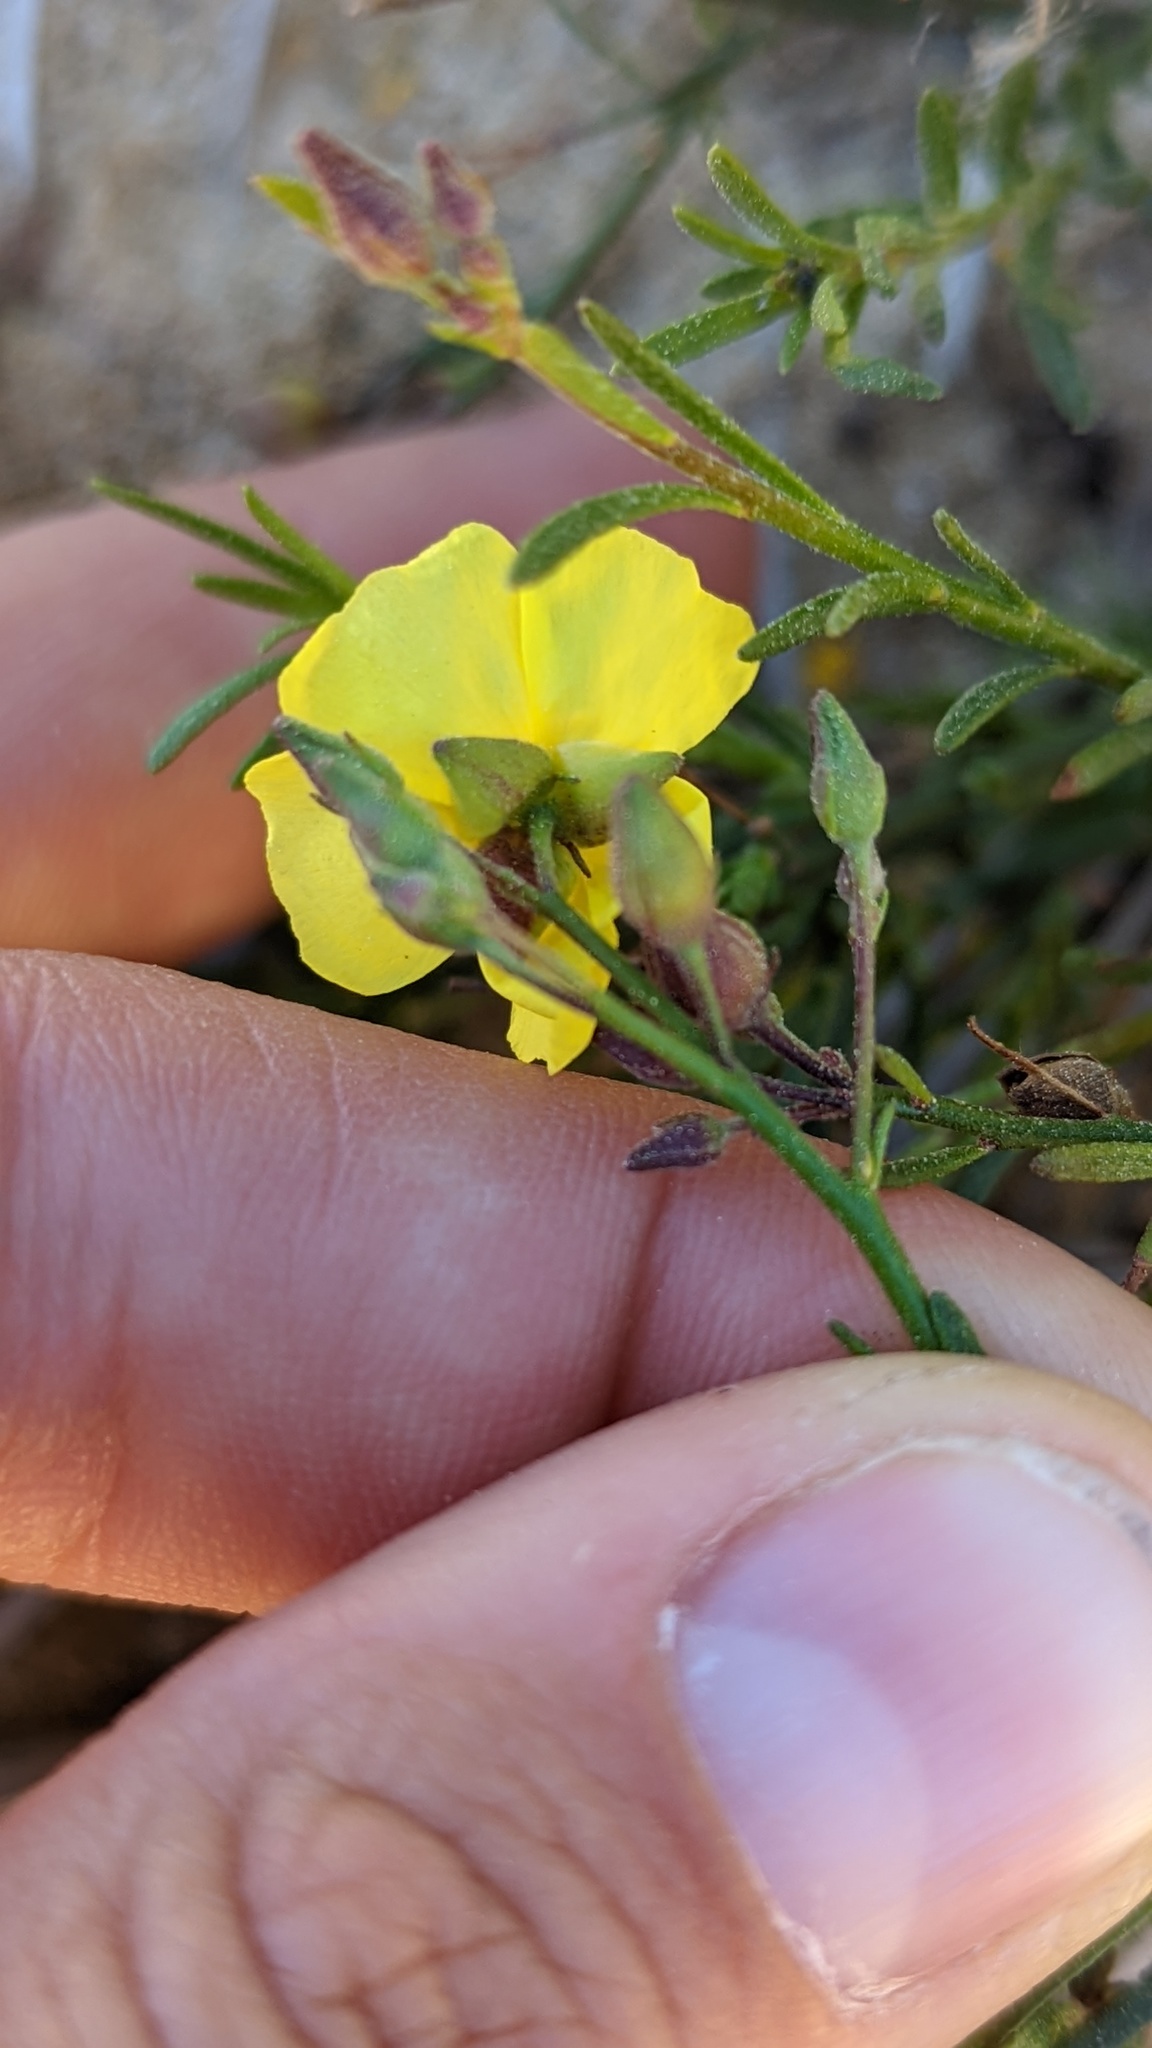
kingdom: Plantae
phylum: Tracheophyta
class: Magnoliopsida
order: Malvales
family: Cistaceae
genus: Crocanthemum
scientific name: Crocanthemum scoparium
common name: Broom-rose
